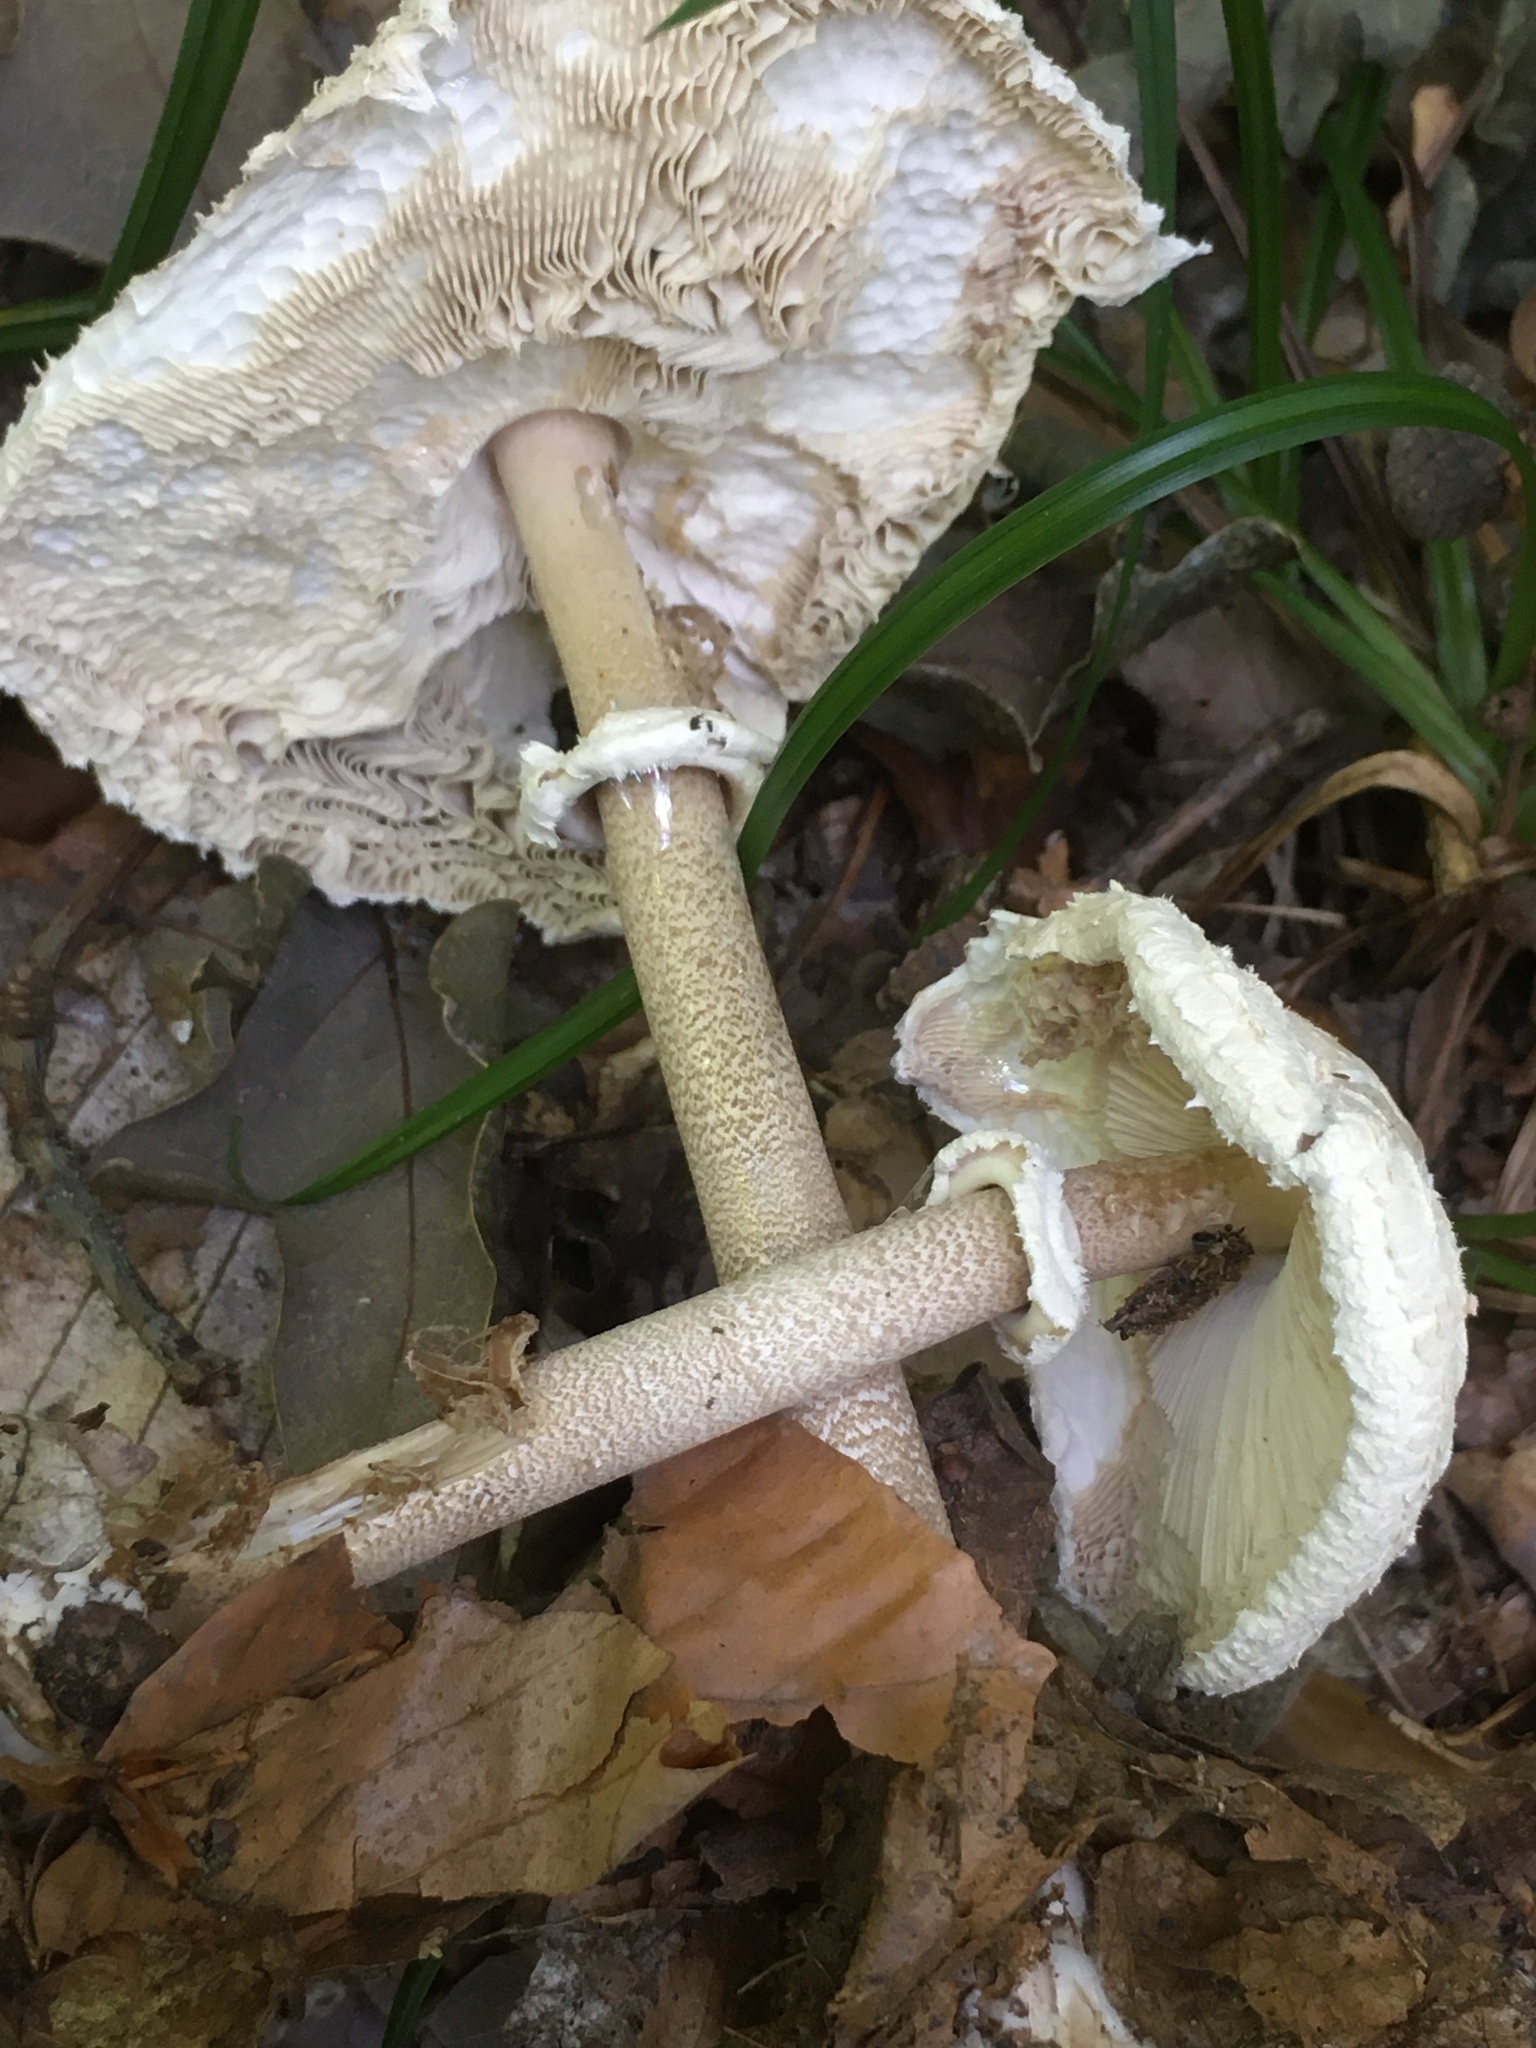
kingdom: Fungi
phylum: Basidiomycota
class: Agaricomycetes
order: Agaricales
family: Agaricaceae
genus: Macrolepiota
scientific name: Macrolepiota procera
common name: Parasol
